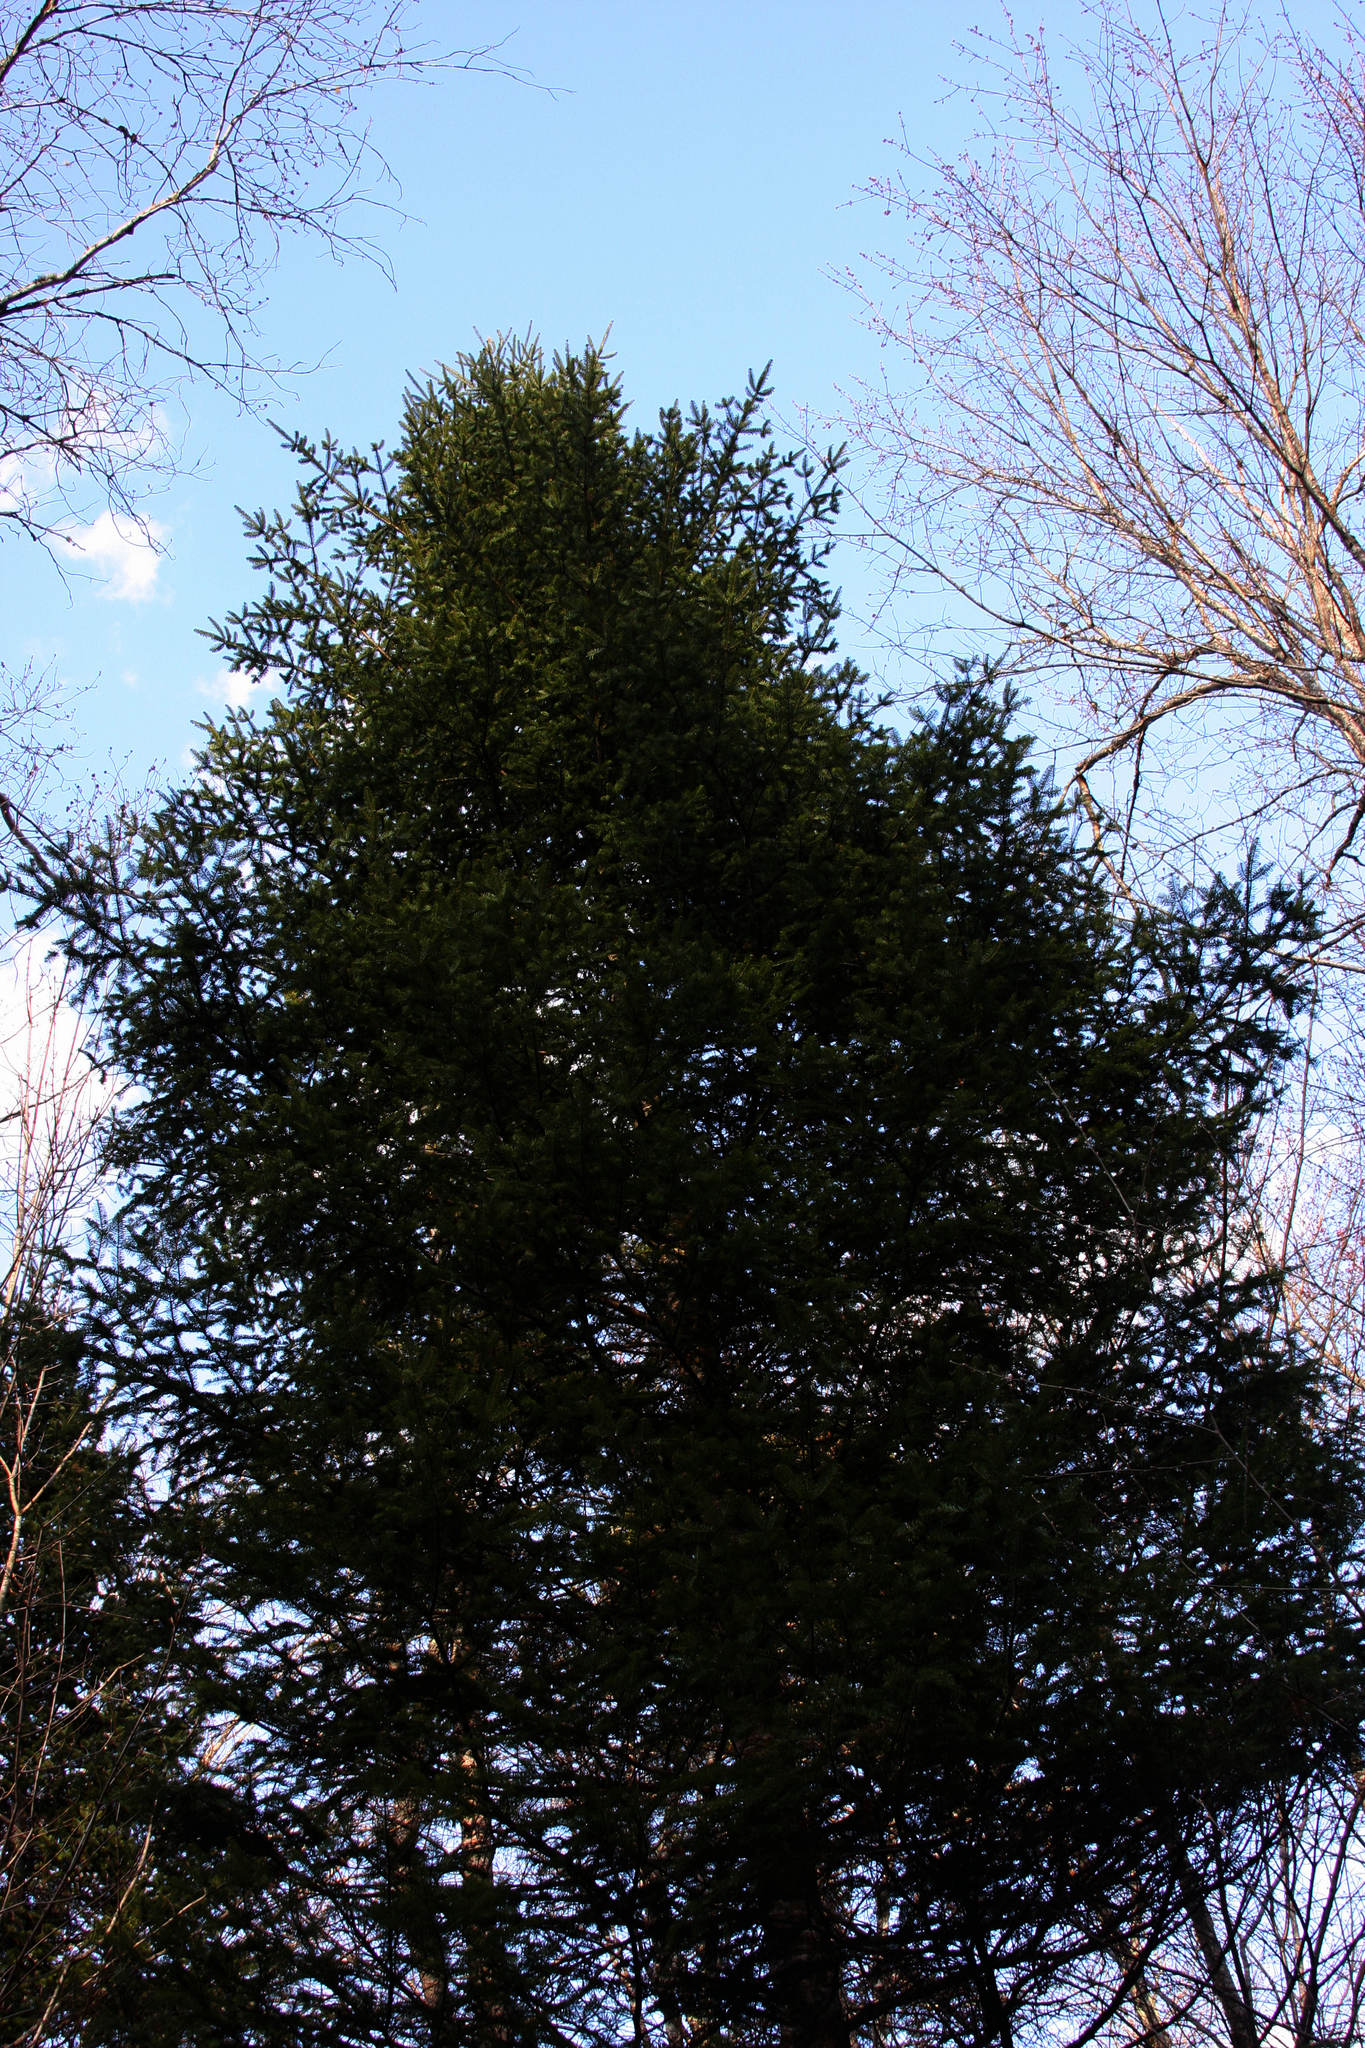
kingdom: Plantae
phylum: Tracheophyta
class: Pinopsida
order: Pinales
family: Pinaceae
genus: Abies
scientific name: Abies balsamea
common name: Balsam fir
